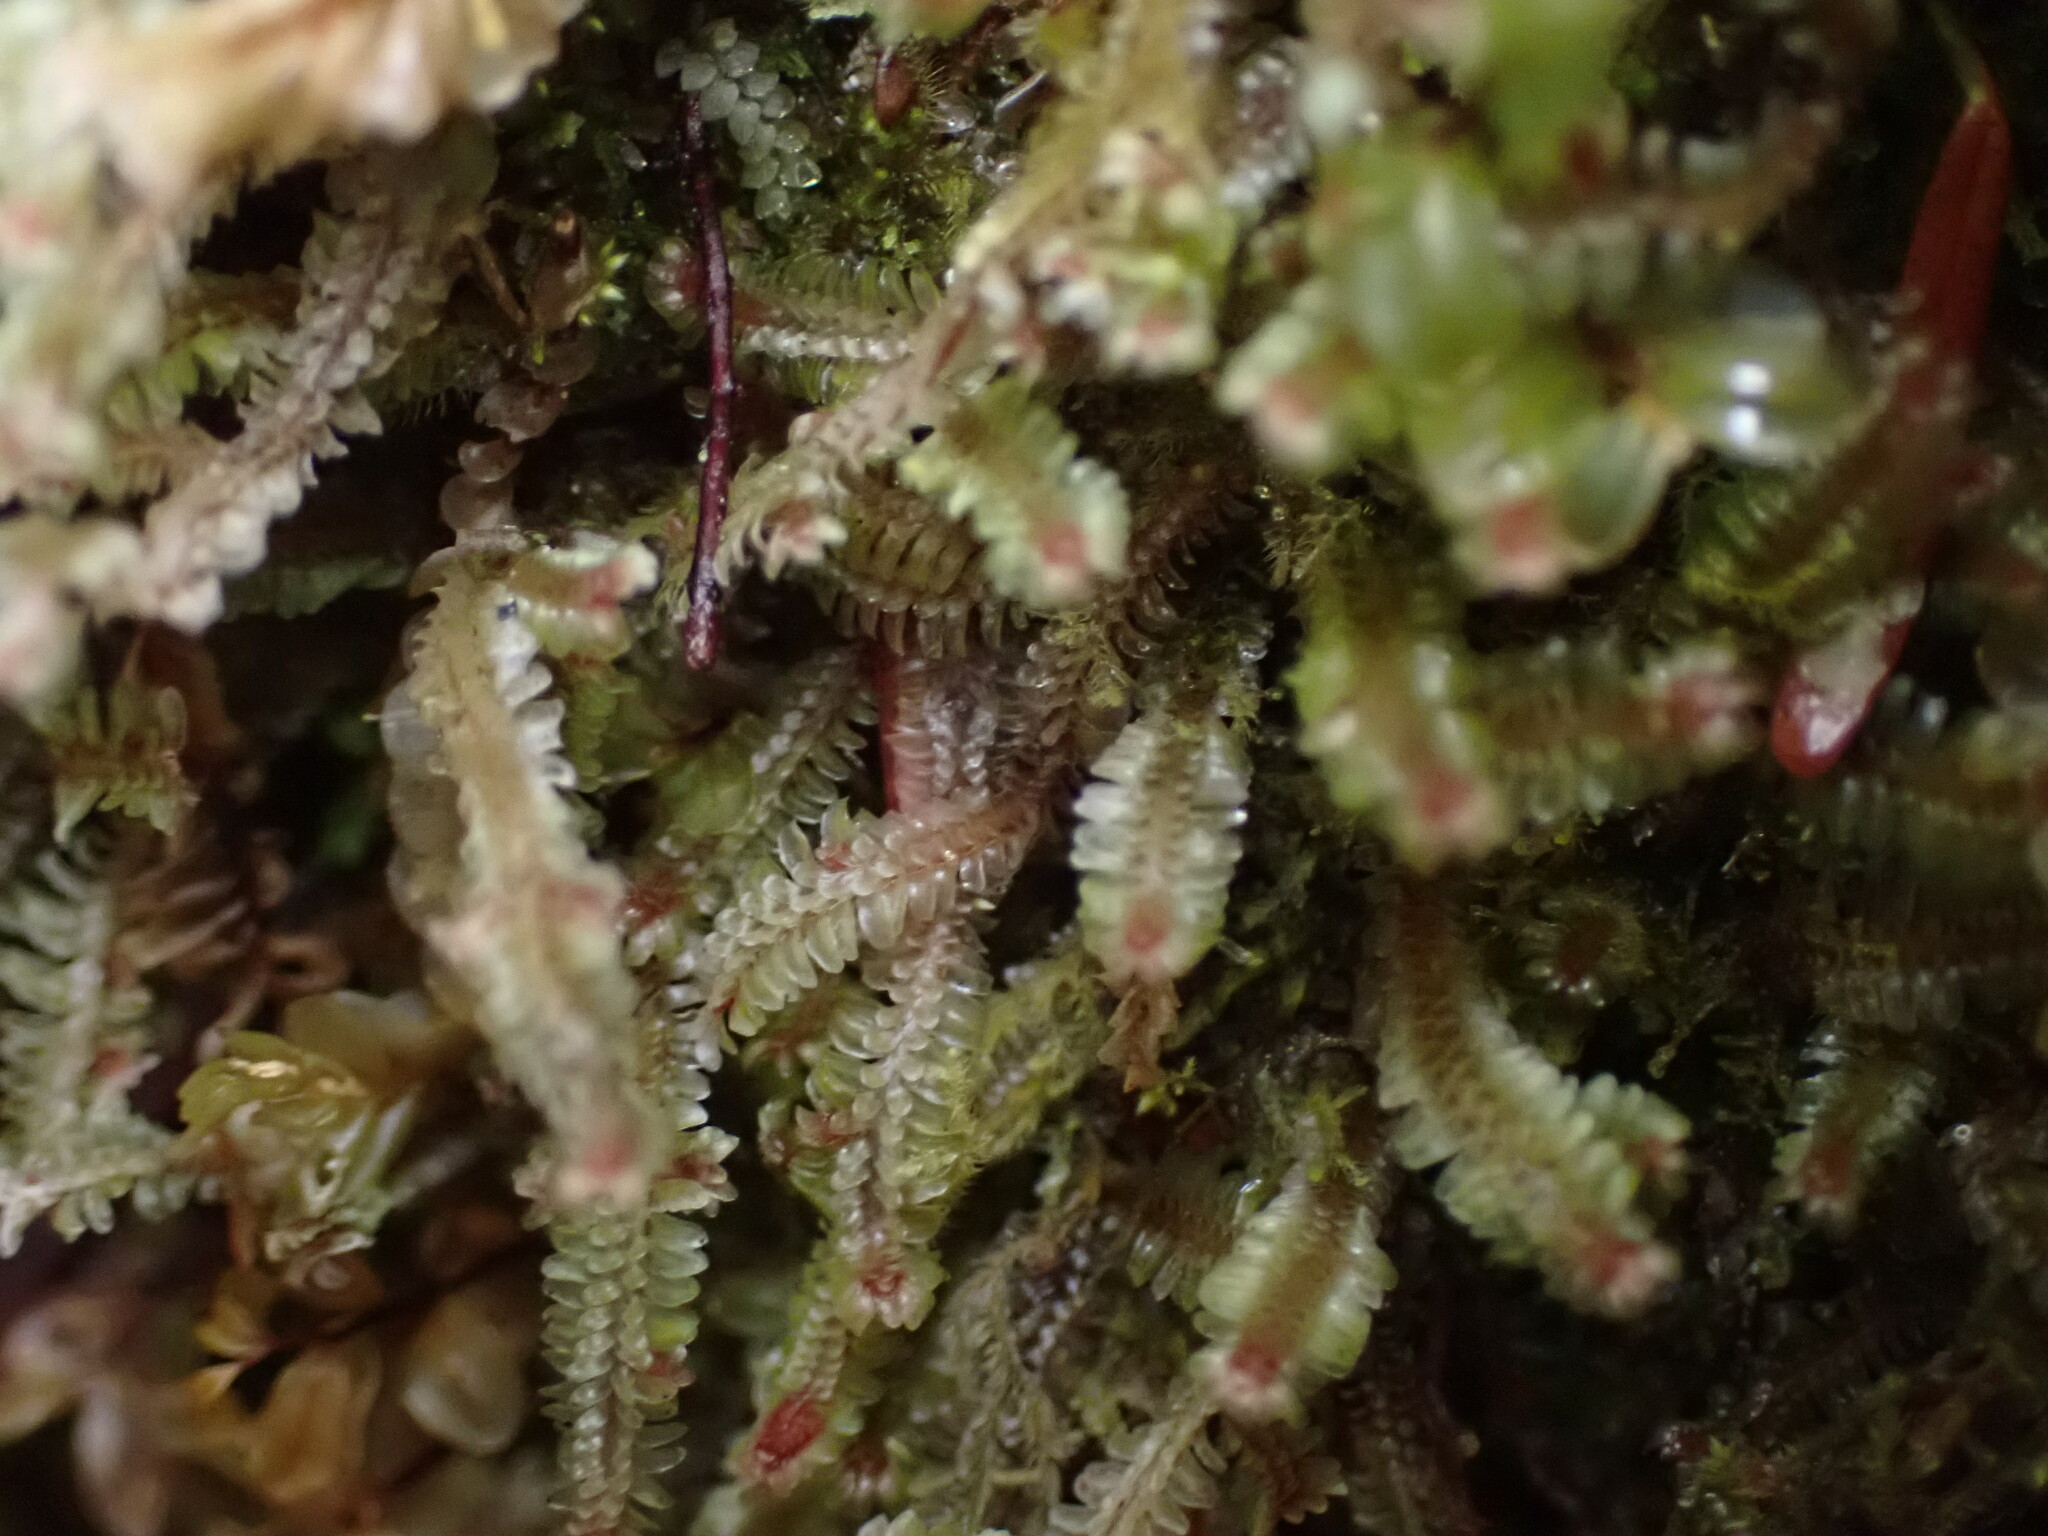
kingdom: Plantae
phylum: Marchantiophyta
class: Jungermanniopsida
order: Jungermanniales
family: Scapaniaceae
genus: Diplophyllum
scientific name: Diplophyllum albicans
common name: White earwort
